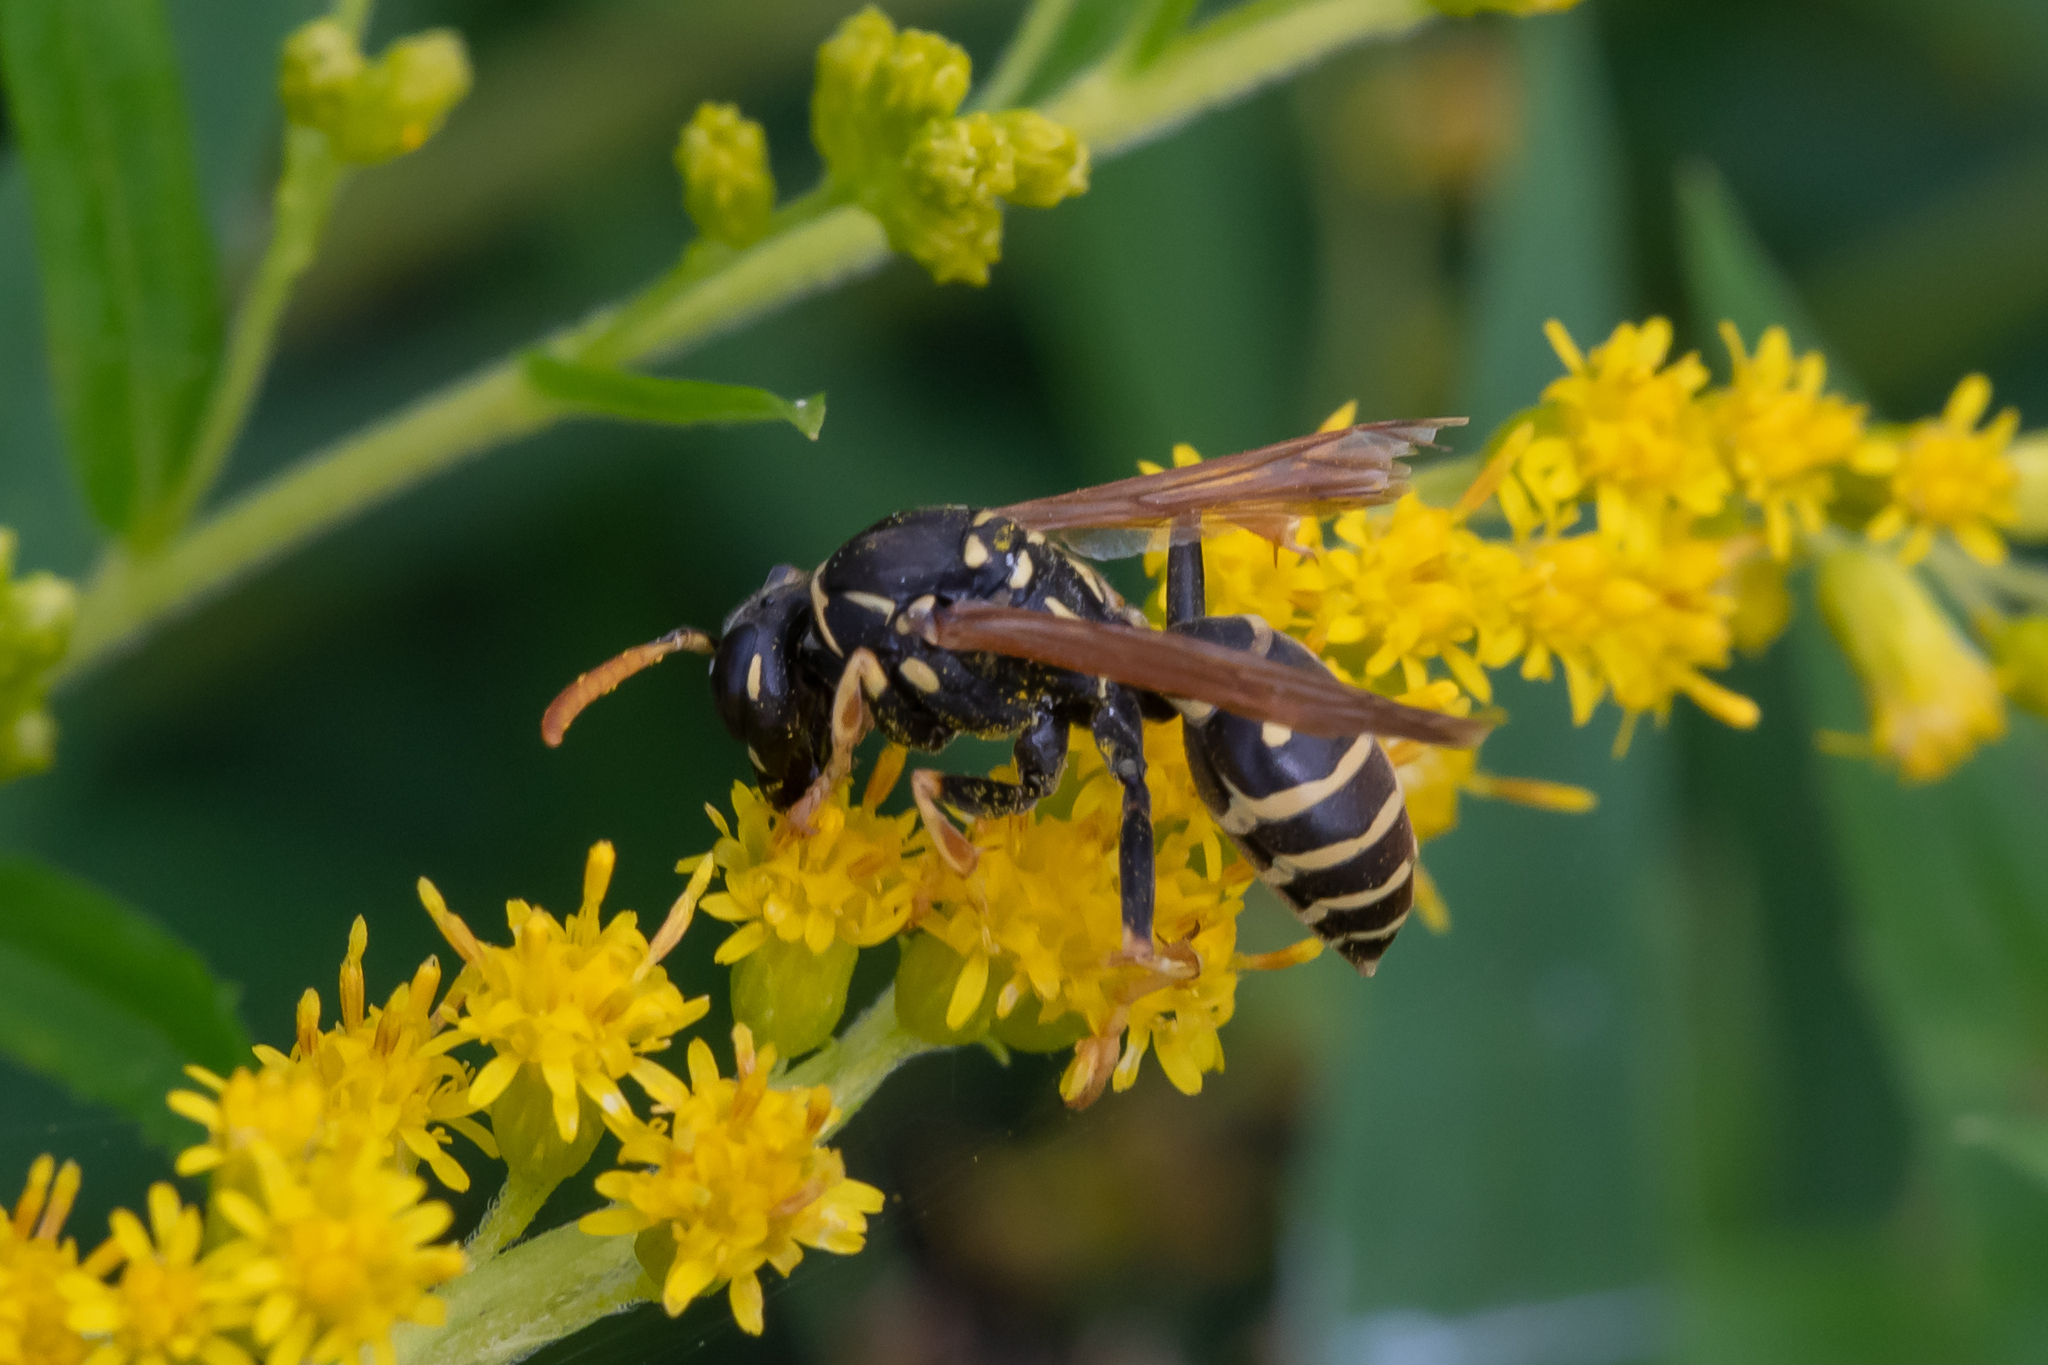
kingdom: Animalia
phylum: Arthropoda
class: Insecta
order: Hymenoptera
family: Eumenidae
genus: Polistes
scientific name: Polistes nimpha
